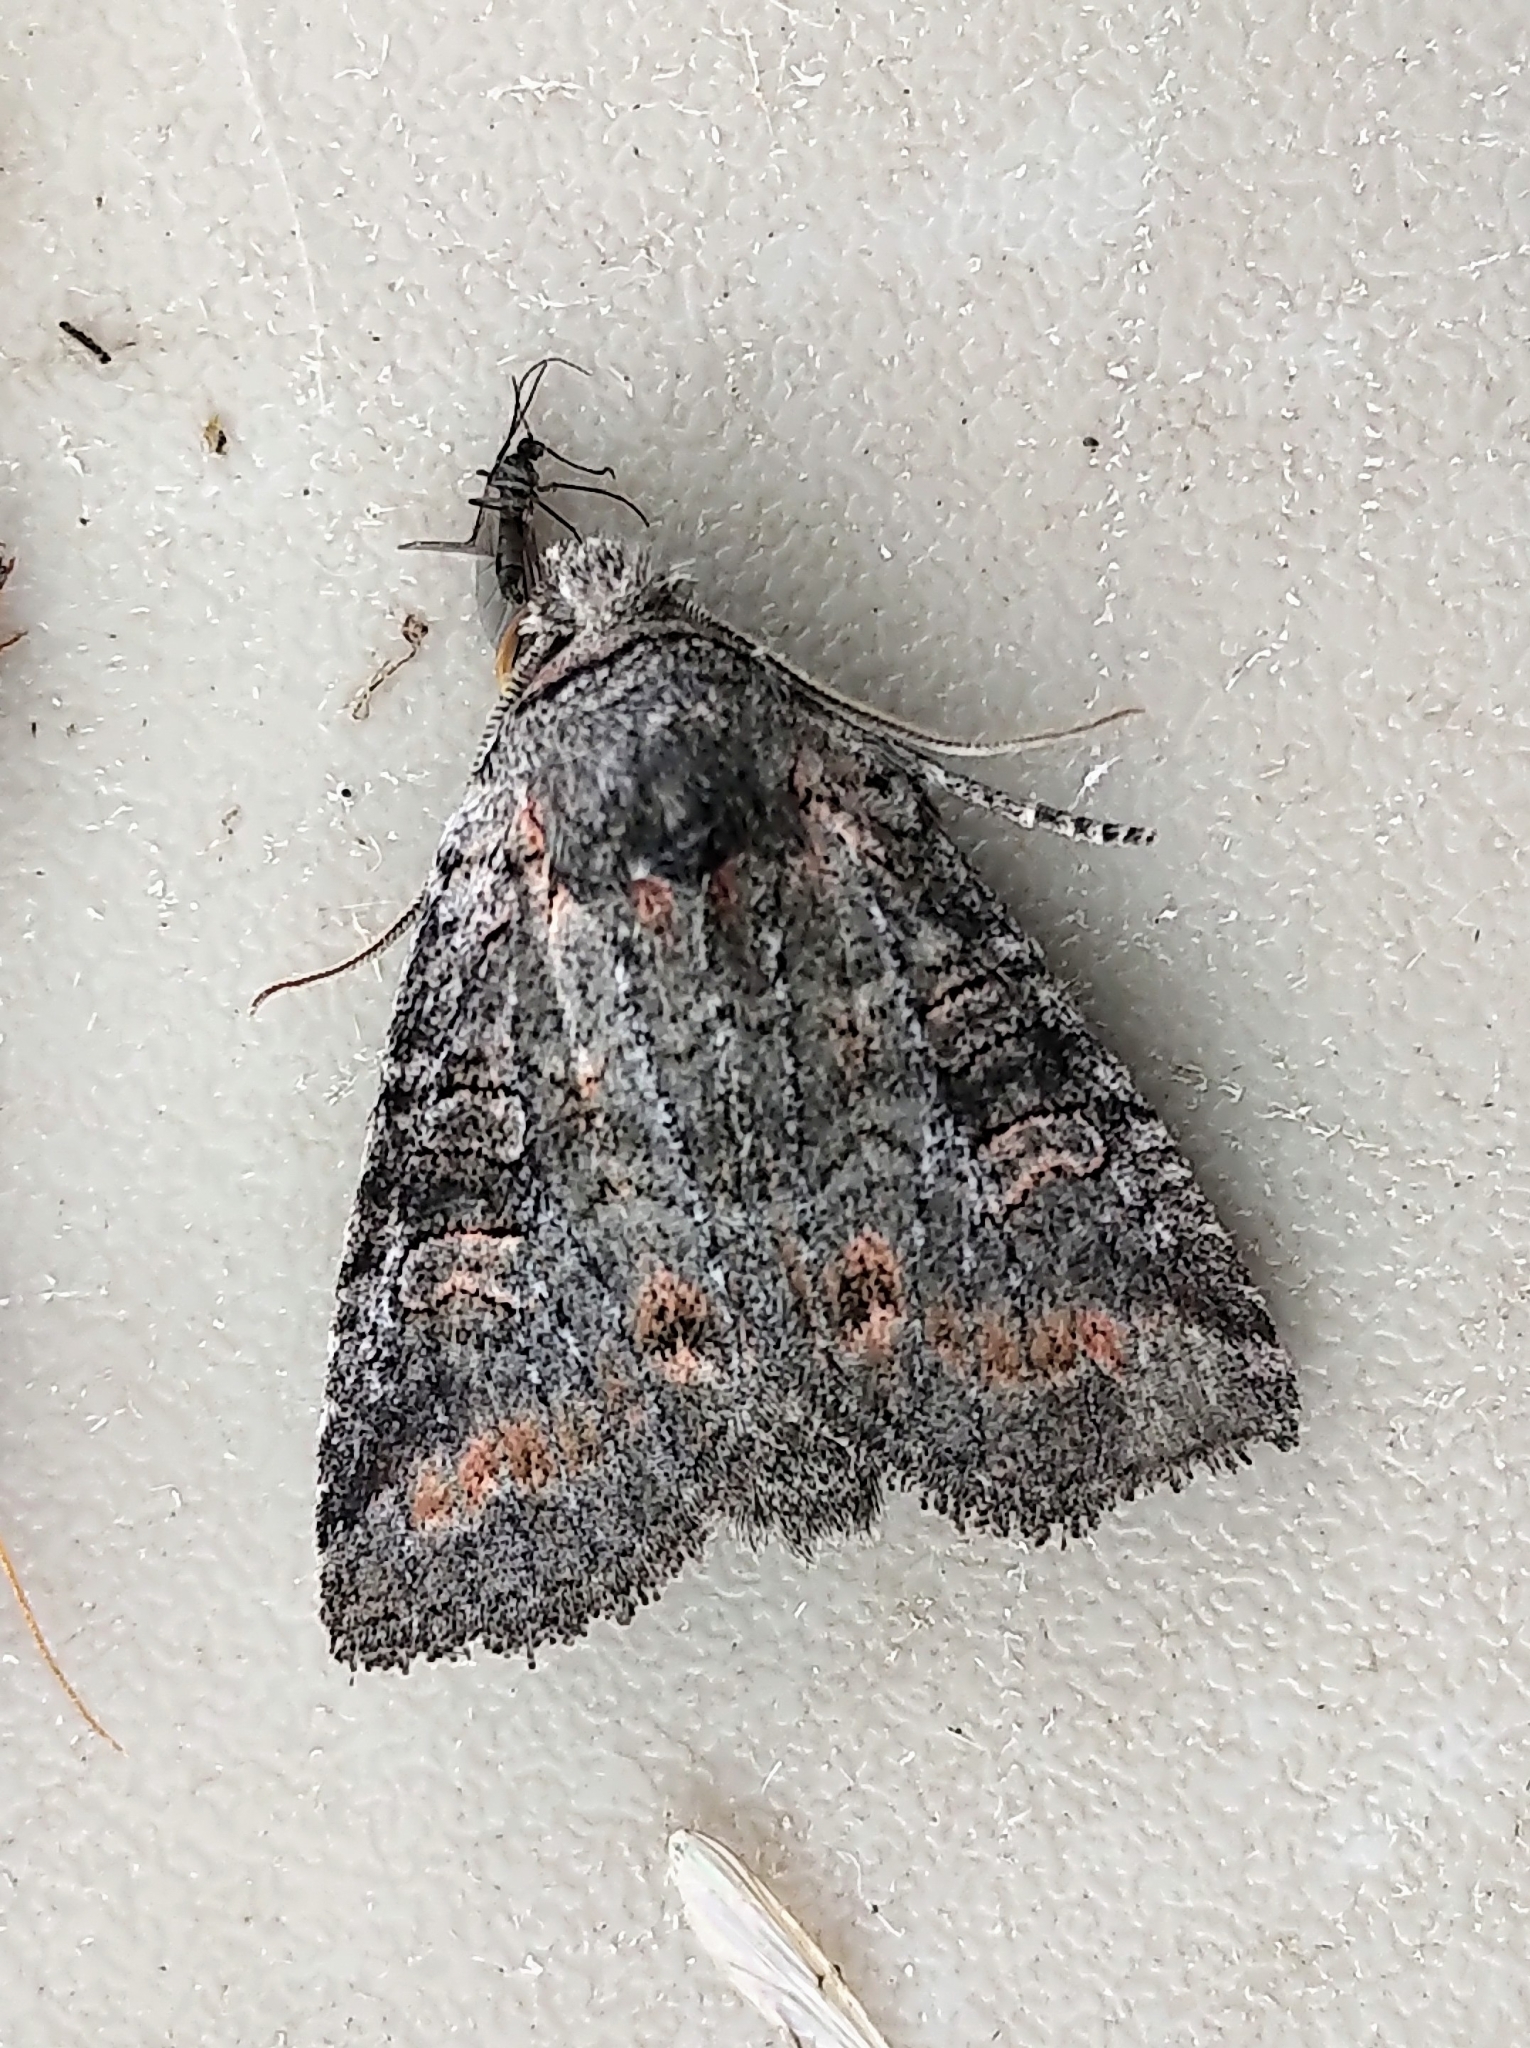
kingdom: Animalia
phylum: Arthropoda
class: Insecta
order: Lepidoptera
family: Noctuidae
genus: Brachylomia
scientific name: Brachylomia algens
